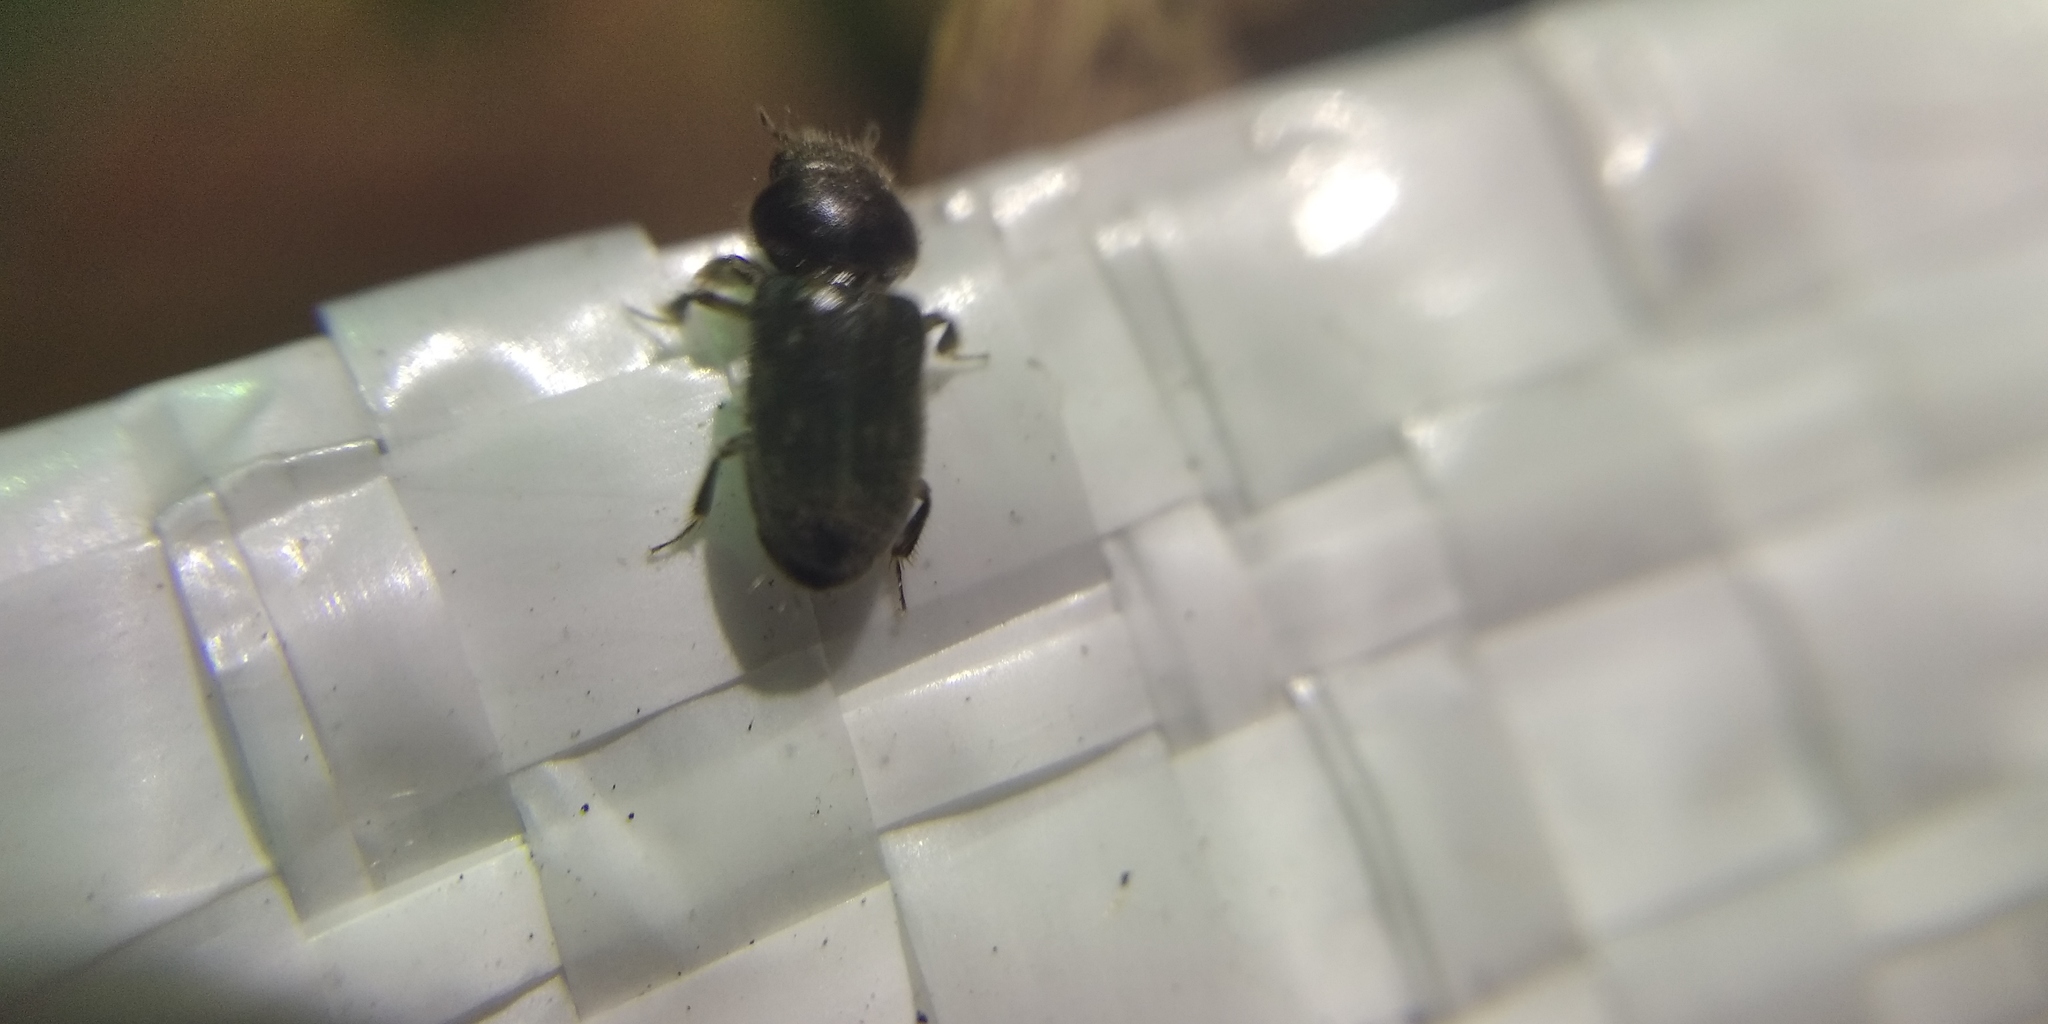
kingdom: Animalia
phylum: Arthropoda
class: Insecta
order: Coleoptera
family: Heteroceridae
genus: Heterocerus
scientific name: Heterocerus fenestratus
